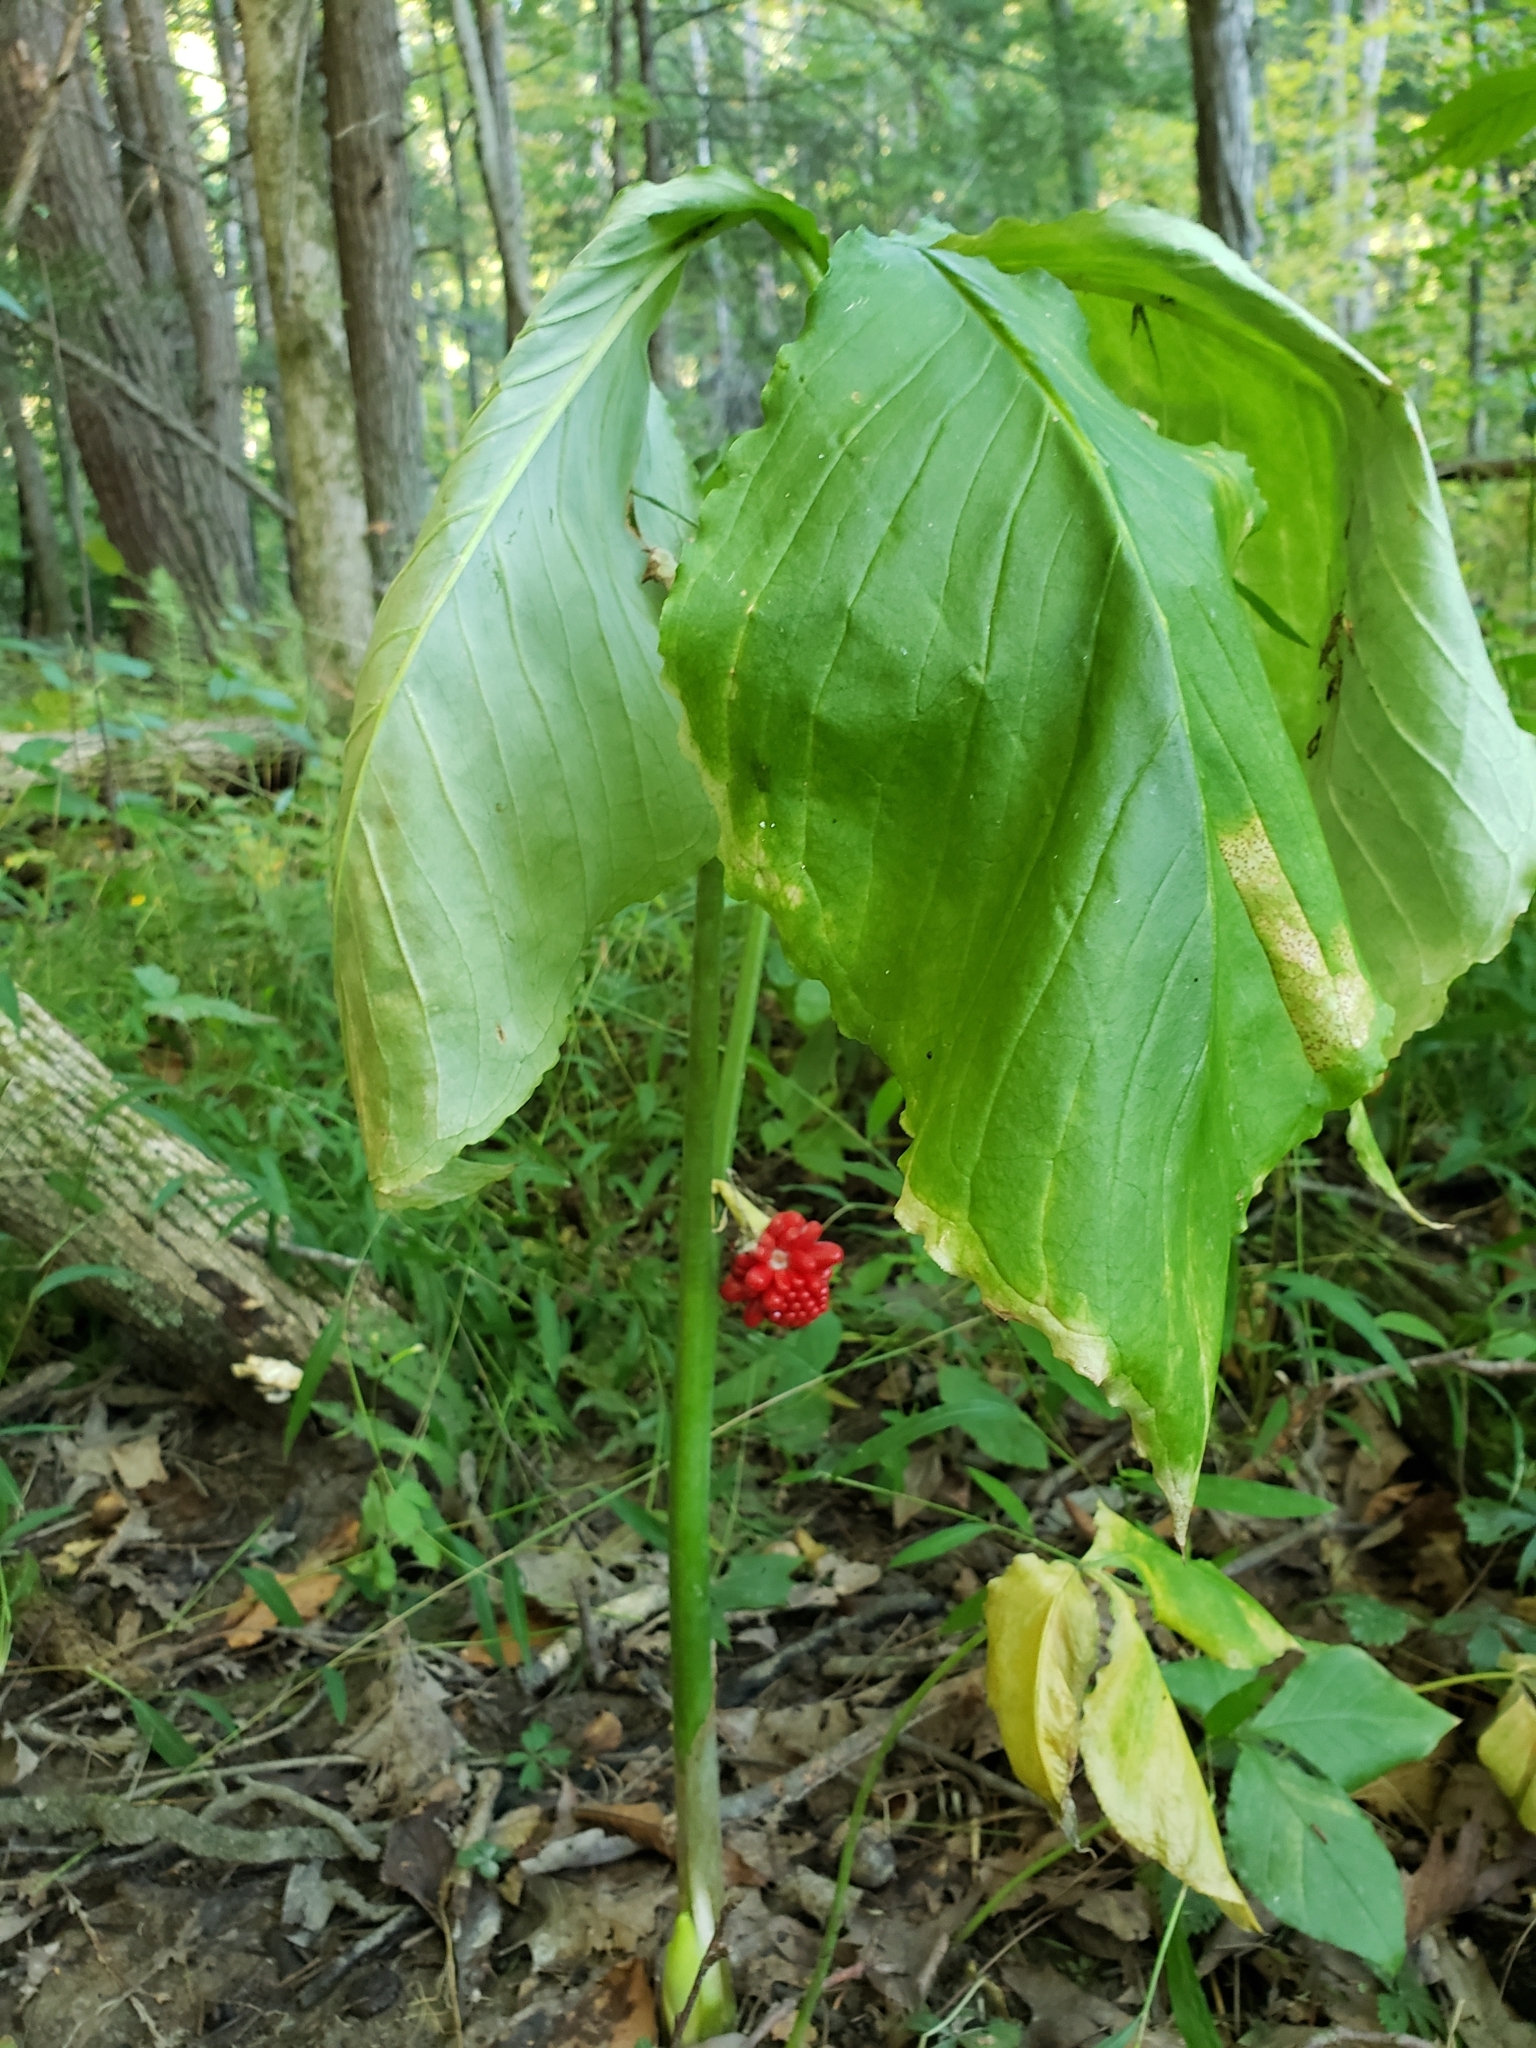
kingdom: Plantae
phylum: Tracheophyta
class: Liliopsida
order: Alismatales
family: Araceae
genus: Arisaema
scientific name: Arisaema triphyllum
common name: Jack-in-the-pulpit
